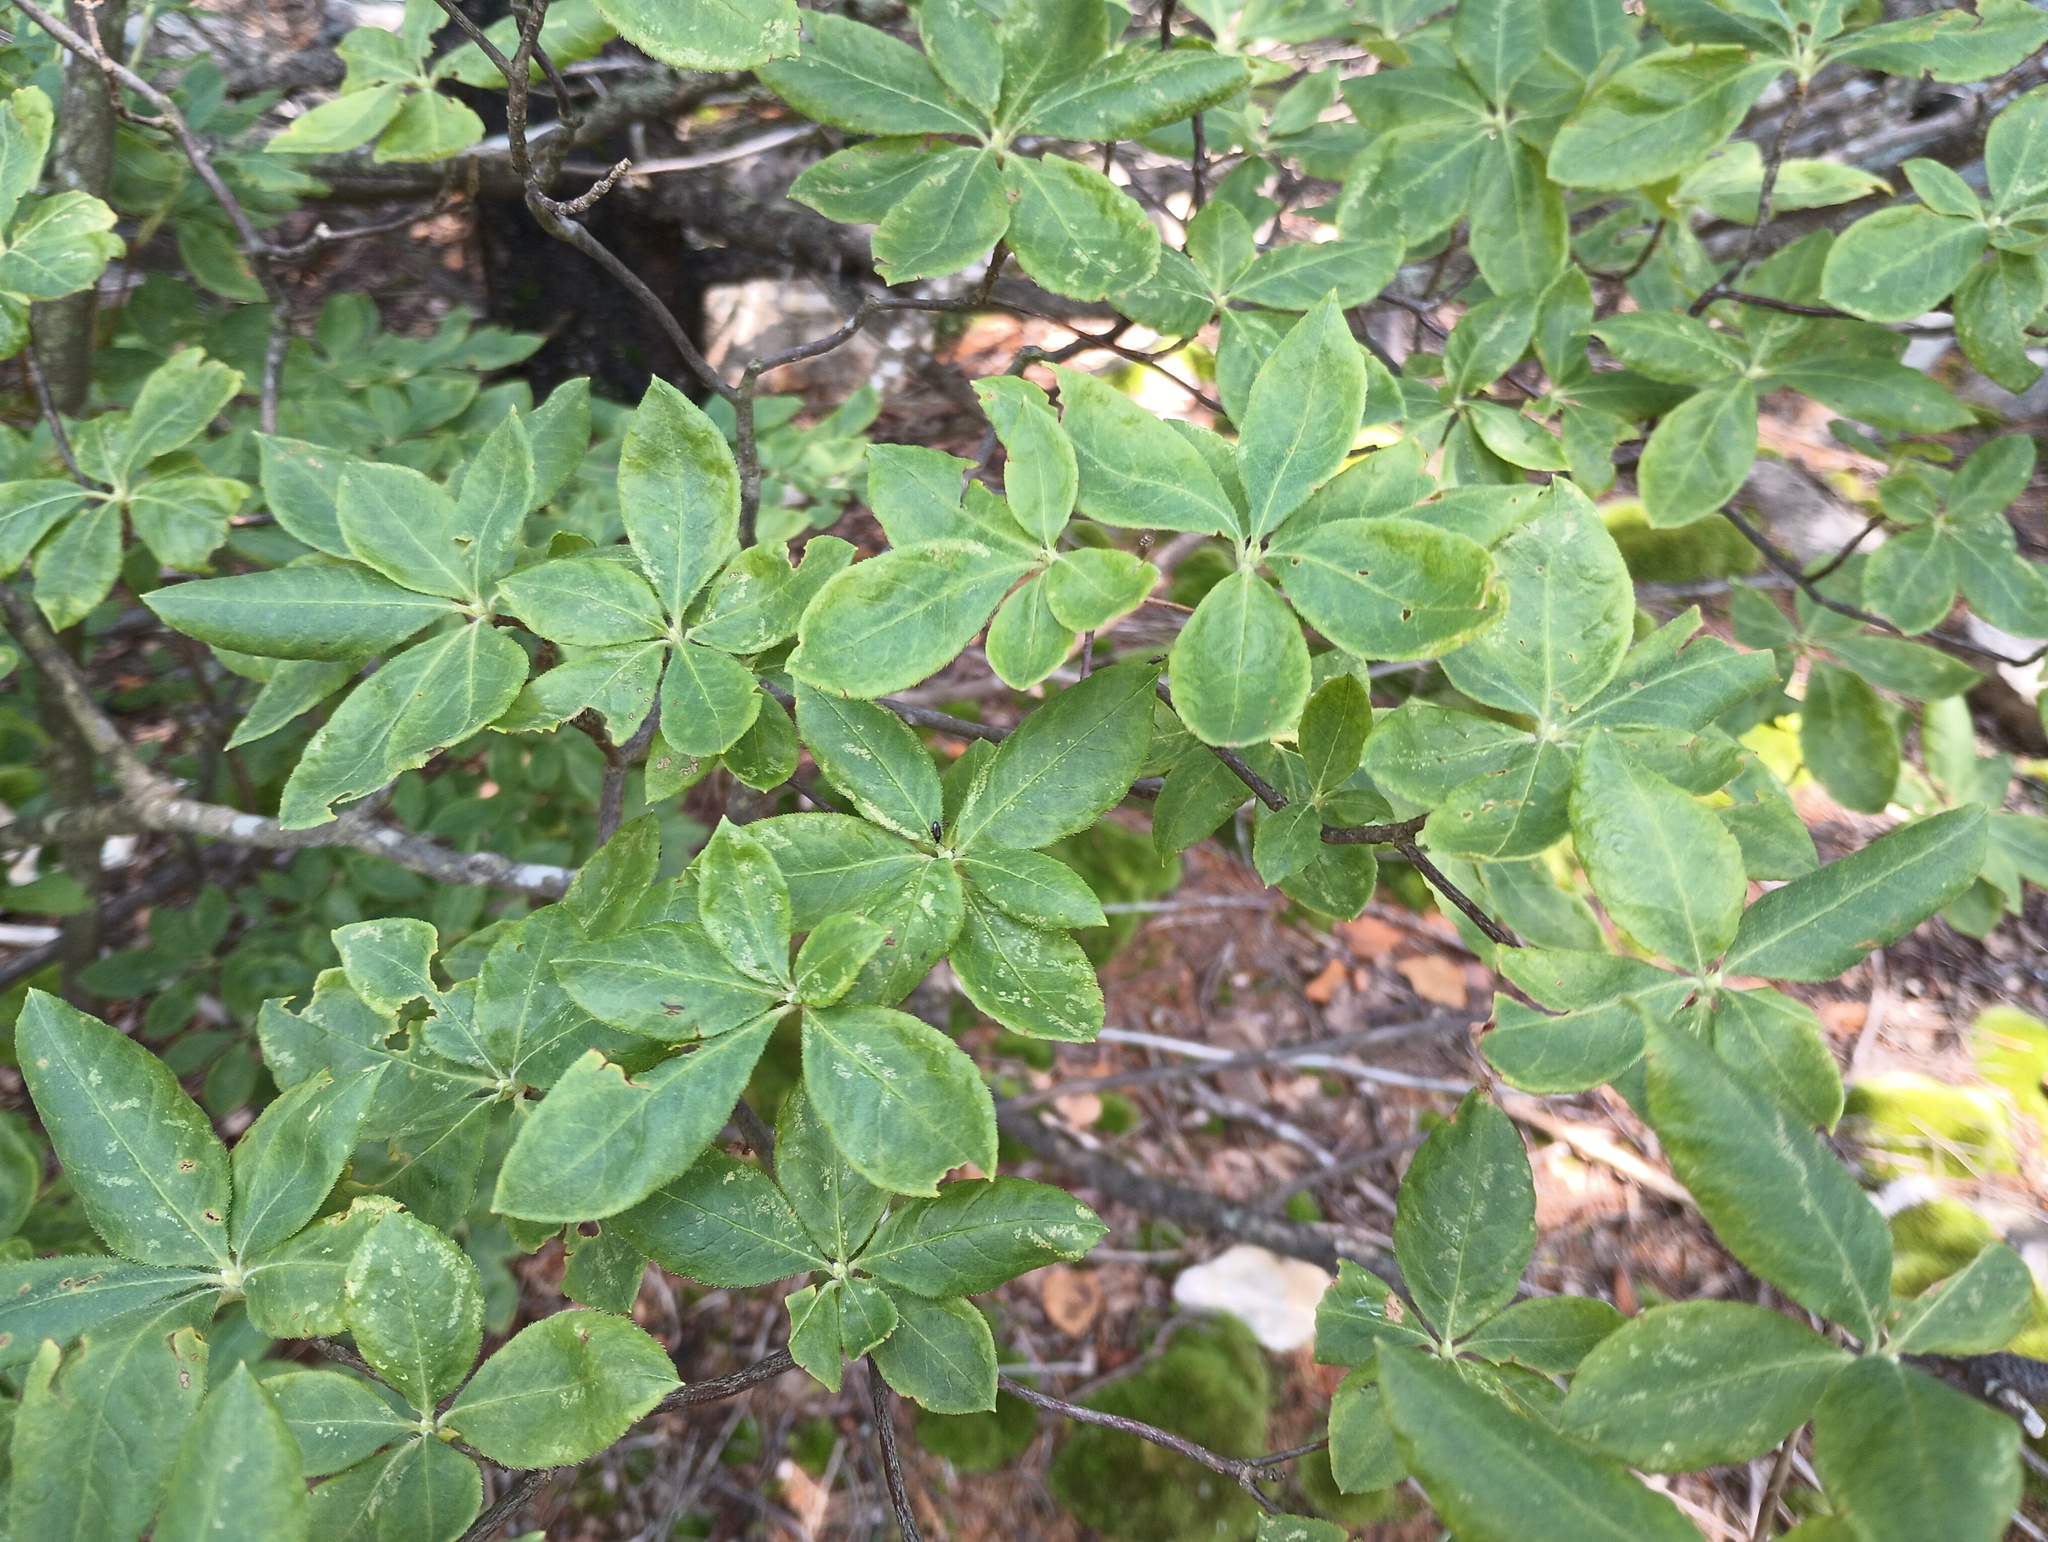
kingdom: Plantae
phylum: Tracheophyta
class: Magnoliopsida
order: Ericales
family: Ericaceae
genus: Rhododendron
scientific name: Rhododendron roseum
